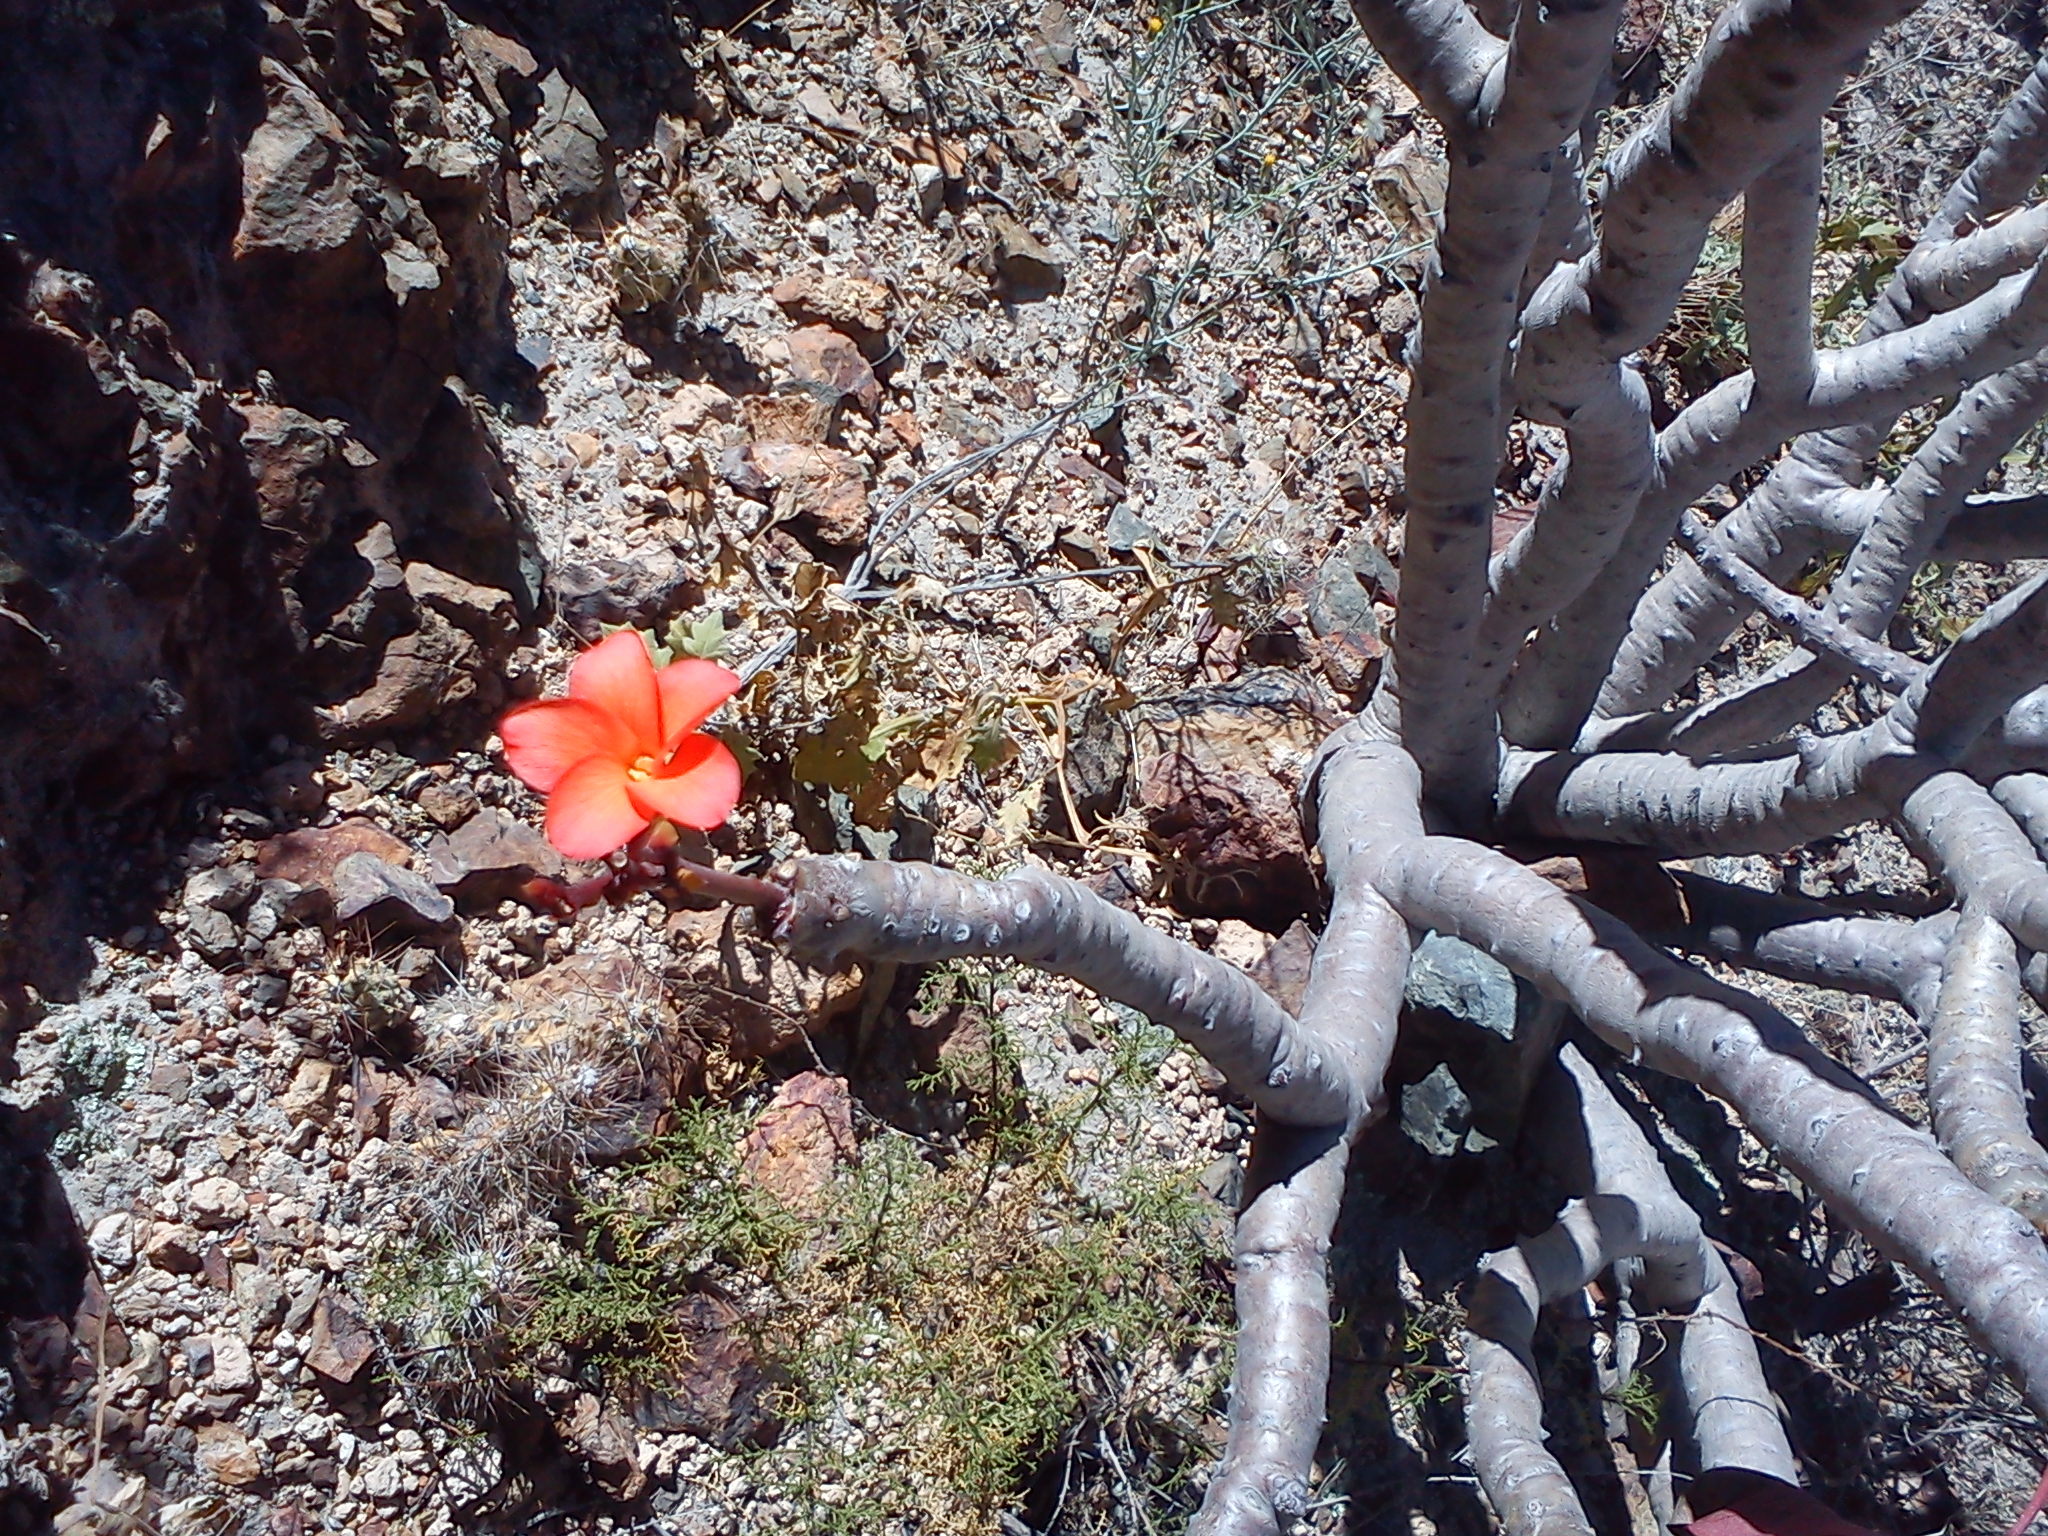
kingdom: Plantae
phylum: Tracheophyta
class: Magnoliopsida
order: Malpighiales
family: Euphorbiaceae
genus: Jatropha
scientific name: Jatropha macrantha
